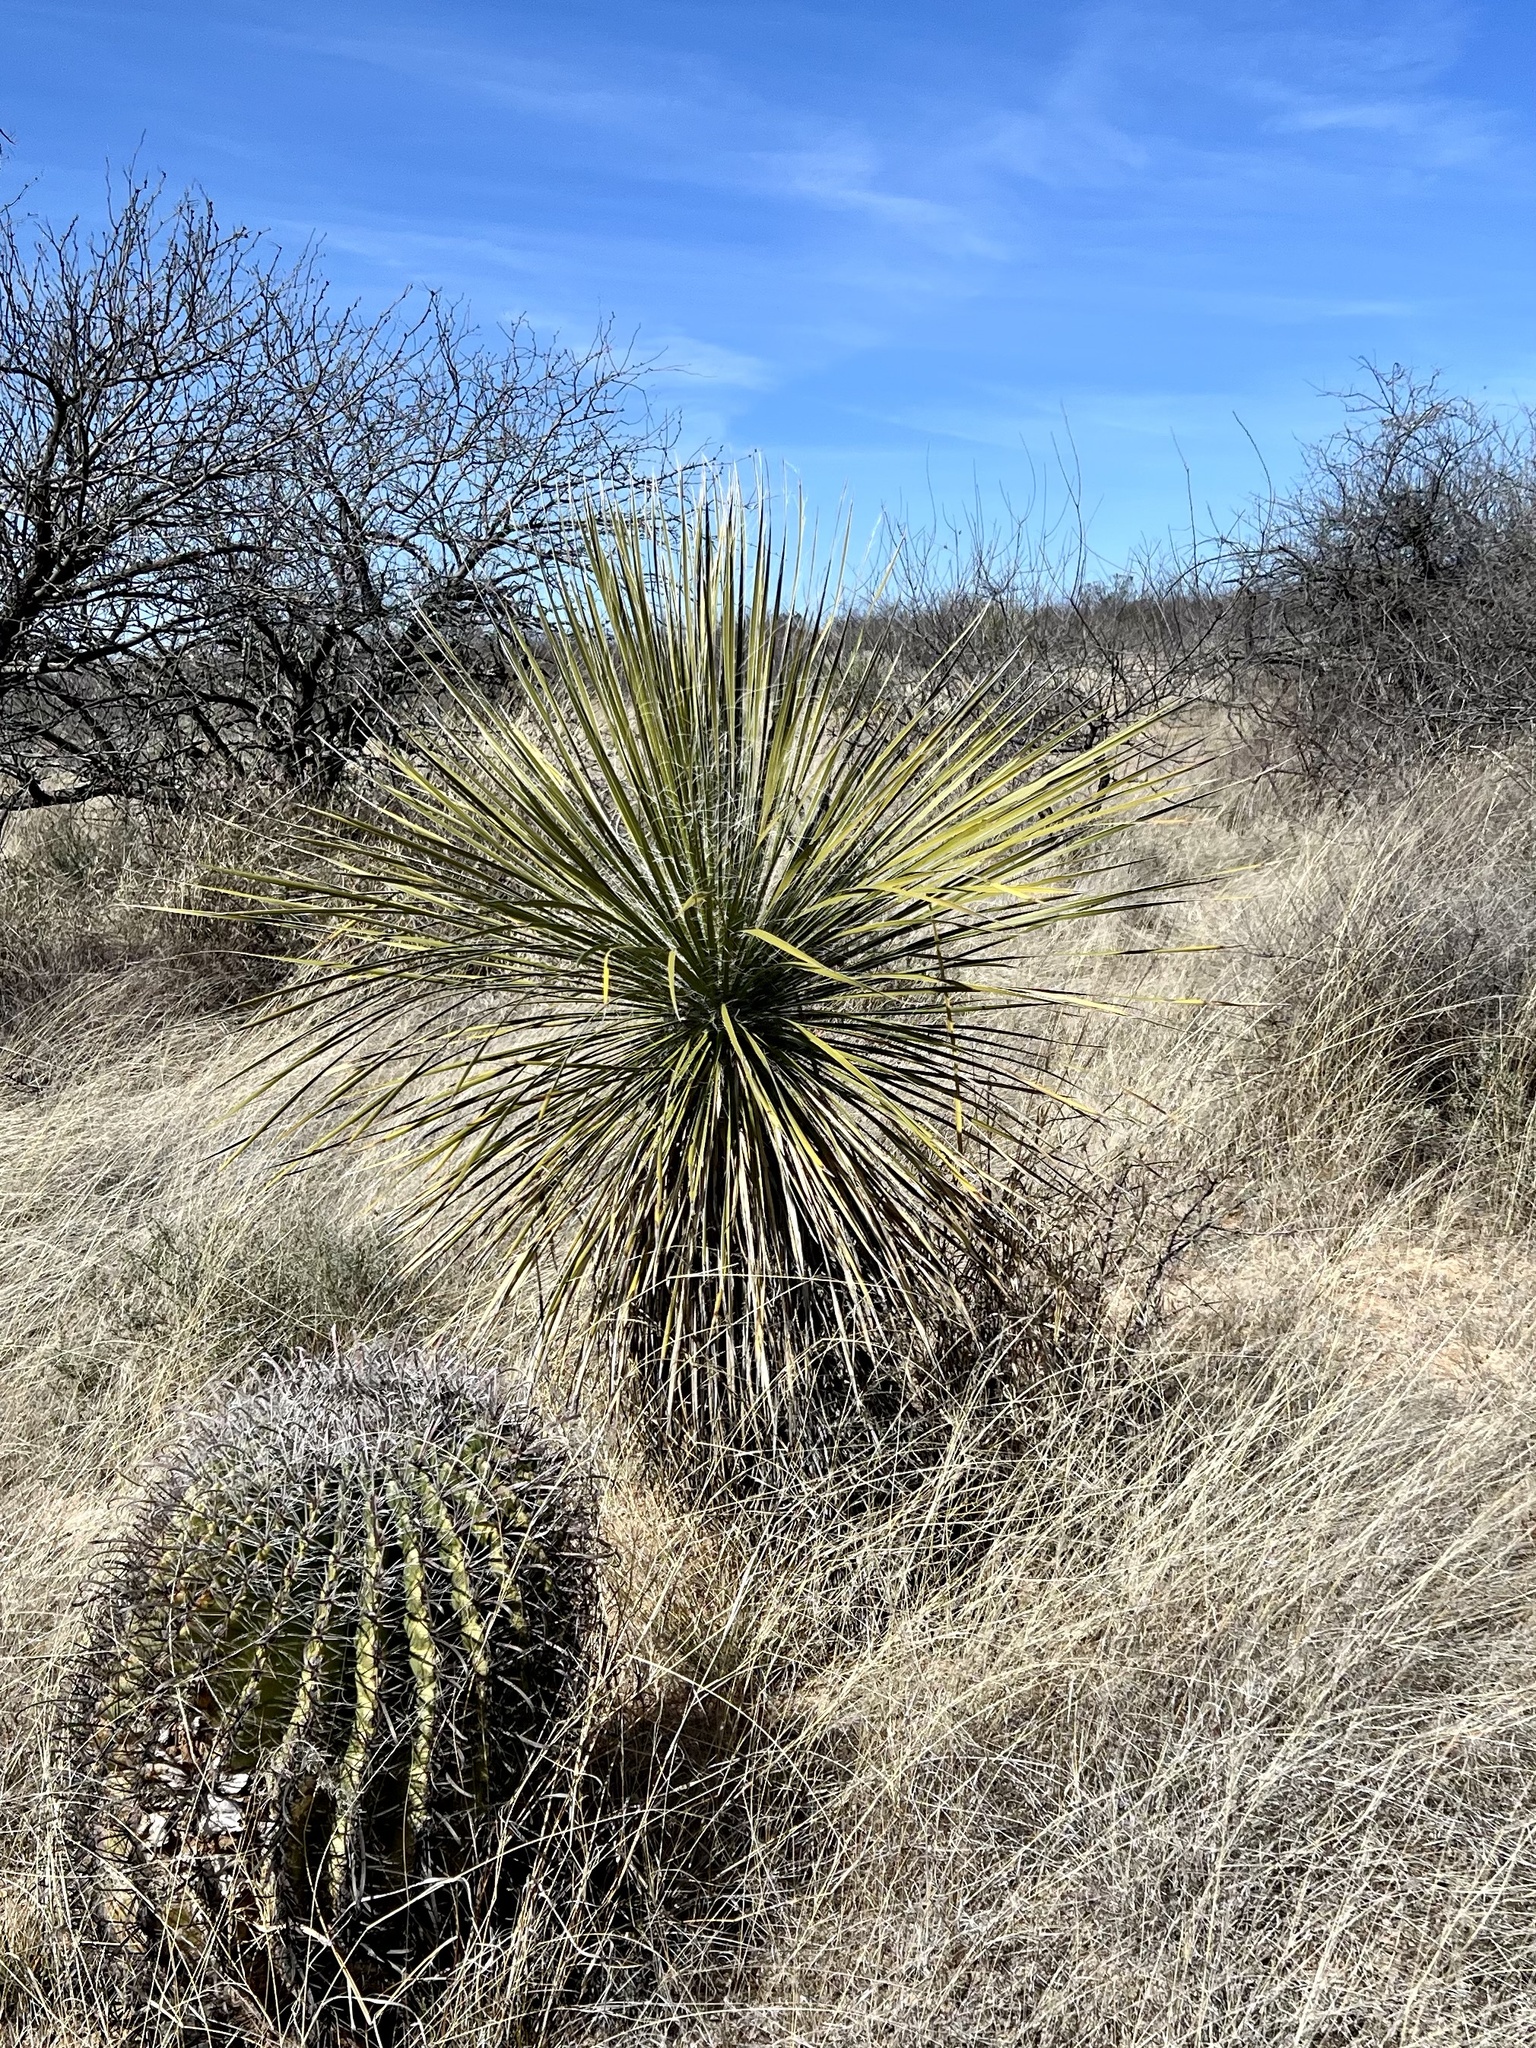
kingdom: Plantae
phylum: Tracheophyta
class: Liliopsida
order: Asparagales
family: Asparagaceae
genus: Yucca
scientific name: Yucca elata
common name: Palmella
